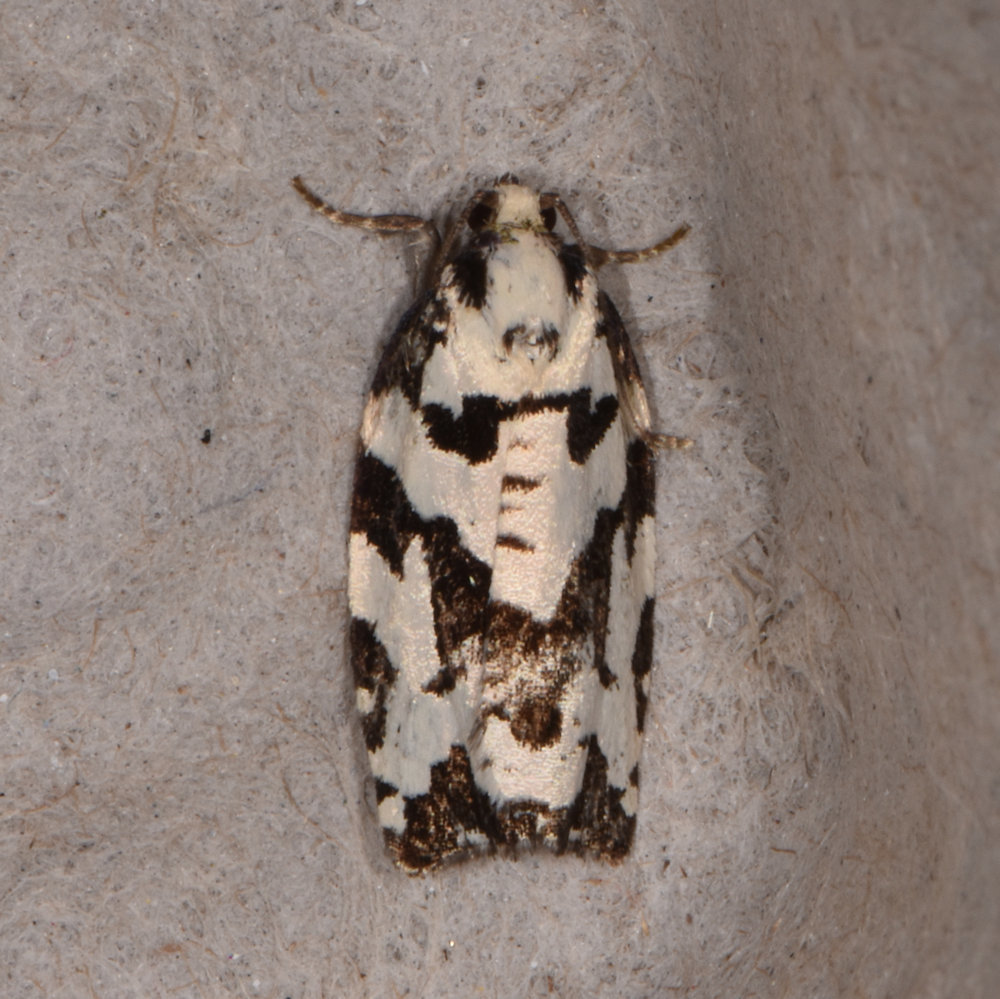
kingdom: Animalia
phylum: Arthropoda
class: Insecta
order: Lepidoptera
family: Tortricidae
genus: Archips
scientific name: Archips dissitana
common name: Boldly-marked archips moth
